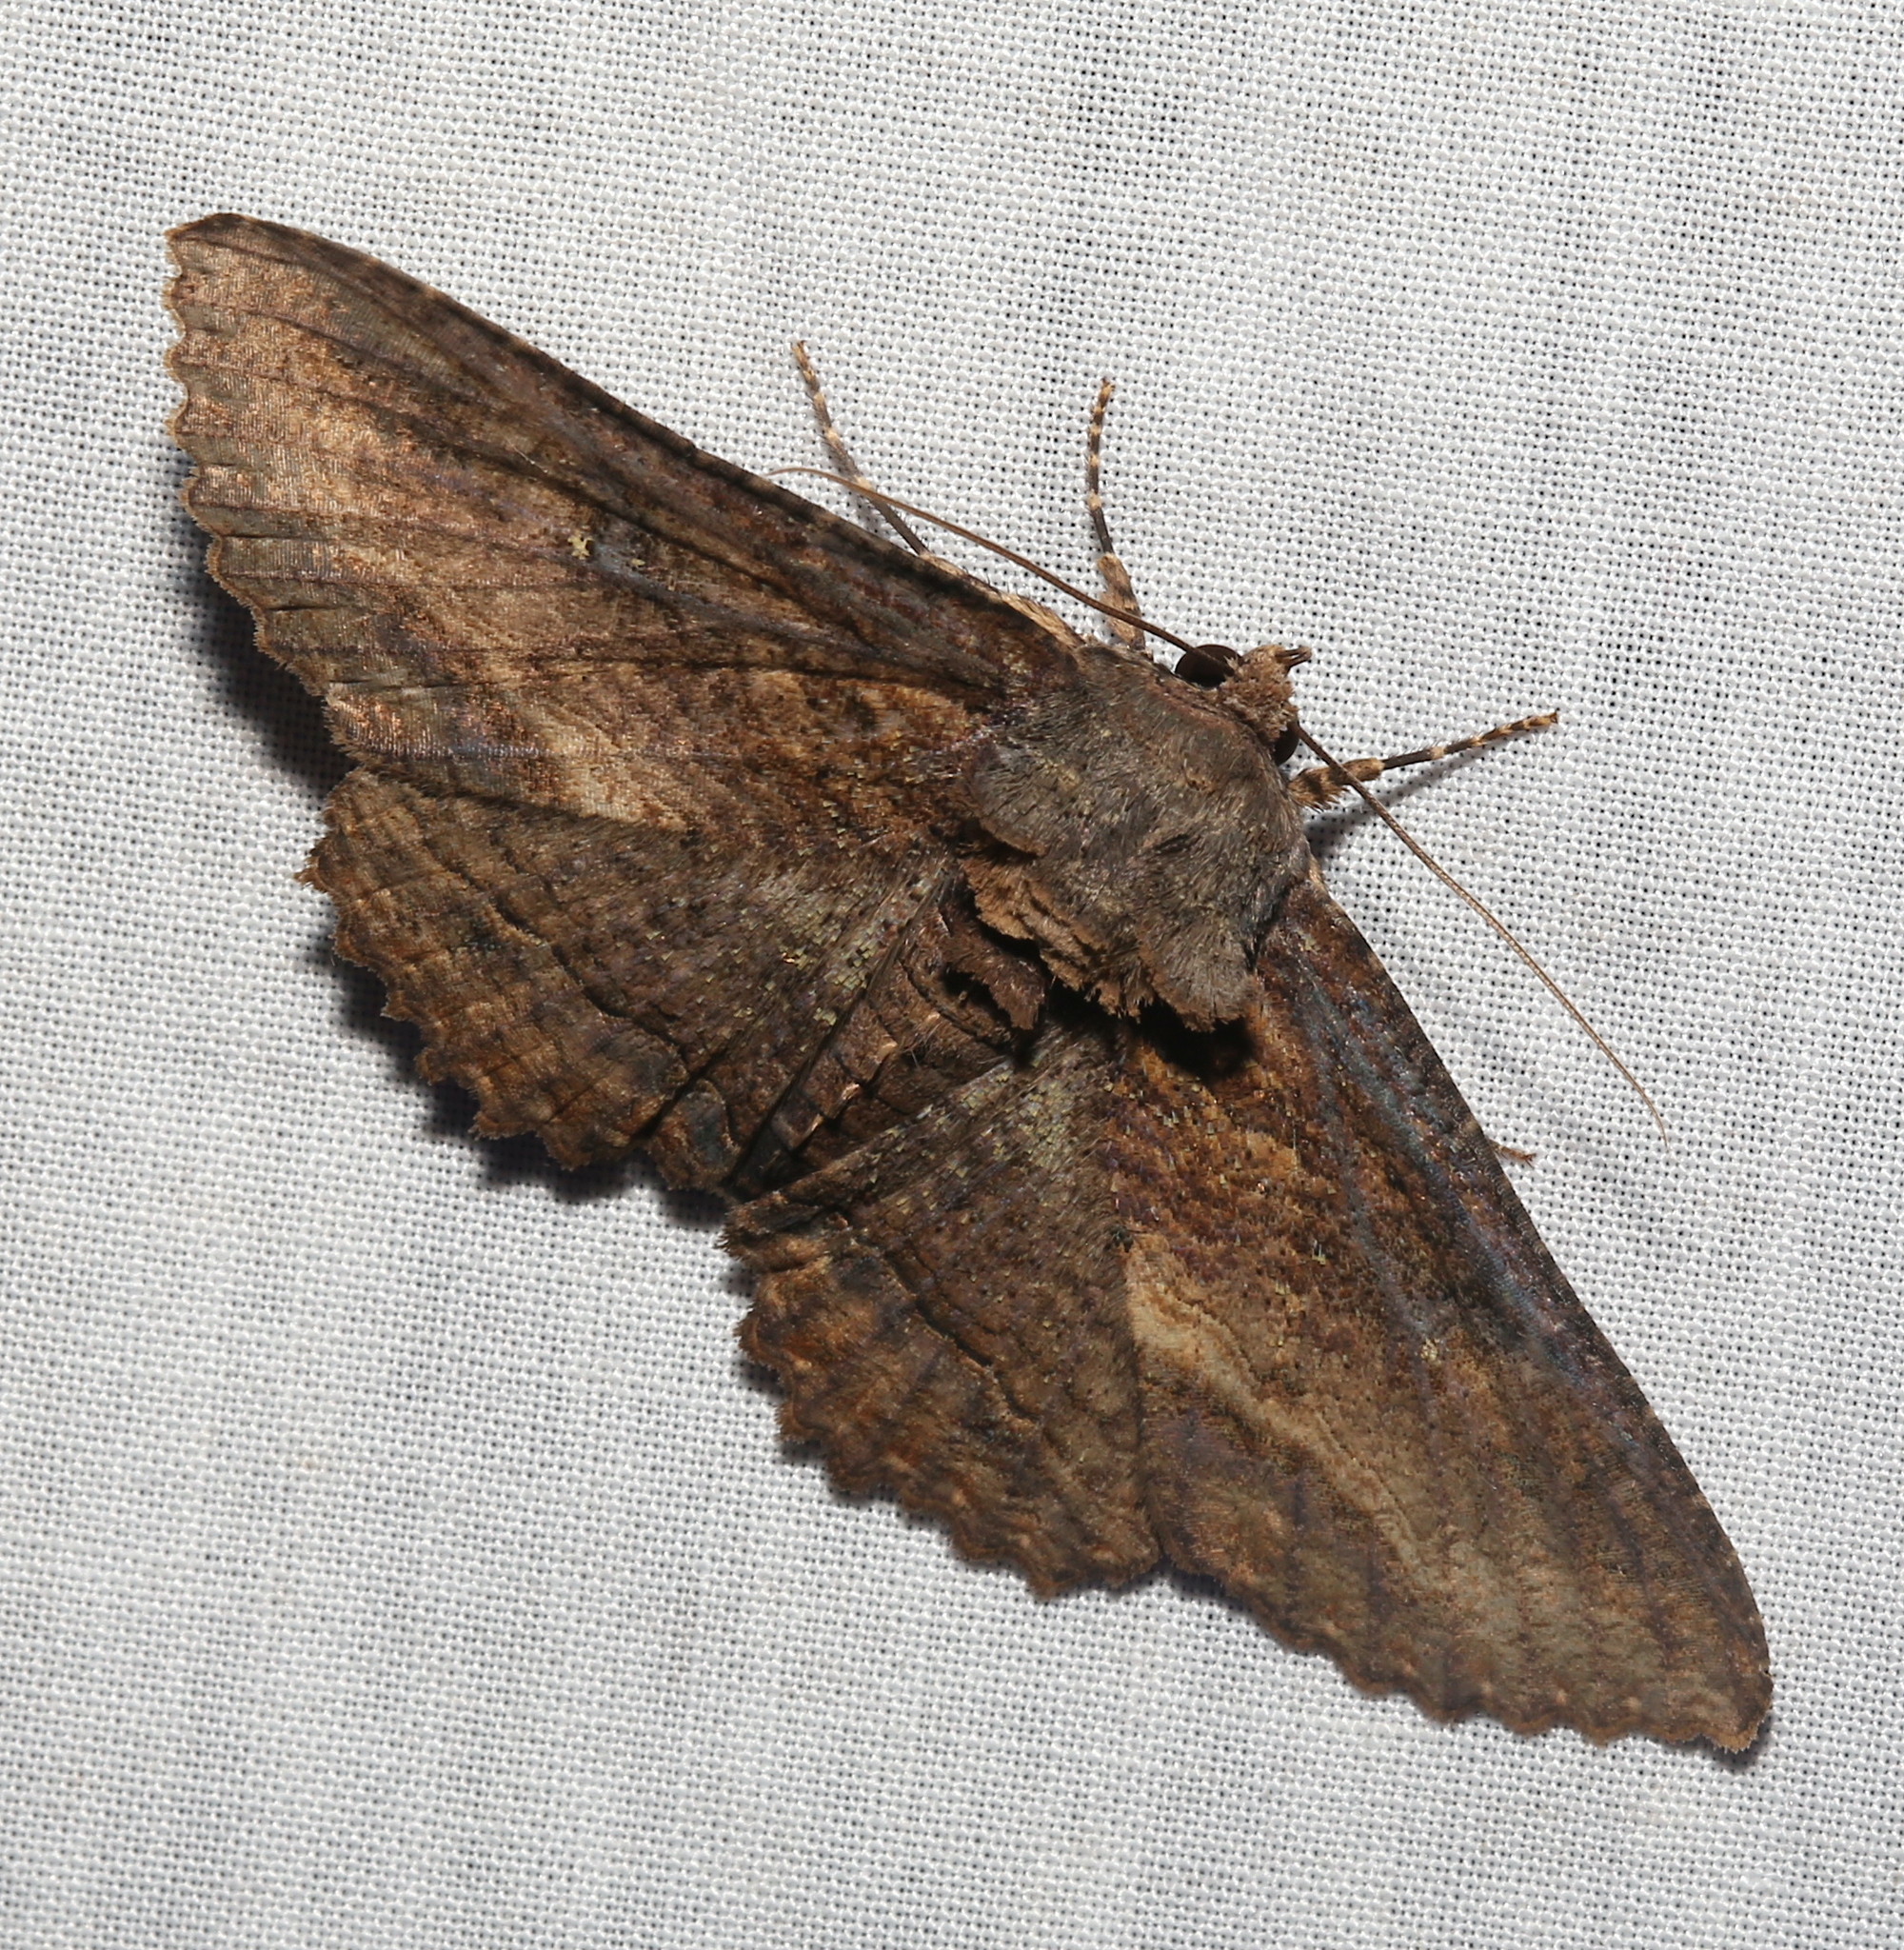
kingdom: Animalia
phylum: Arthropoda
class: Insecta
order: Lepidoptera
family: Erebidae
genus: Zale
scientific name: Zale lunata
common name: Lunate zale moth
